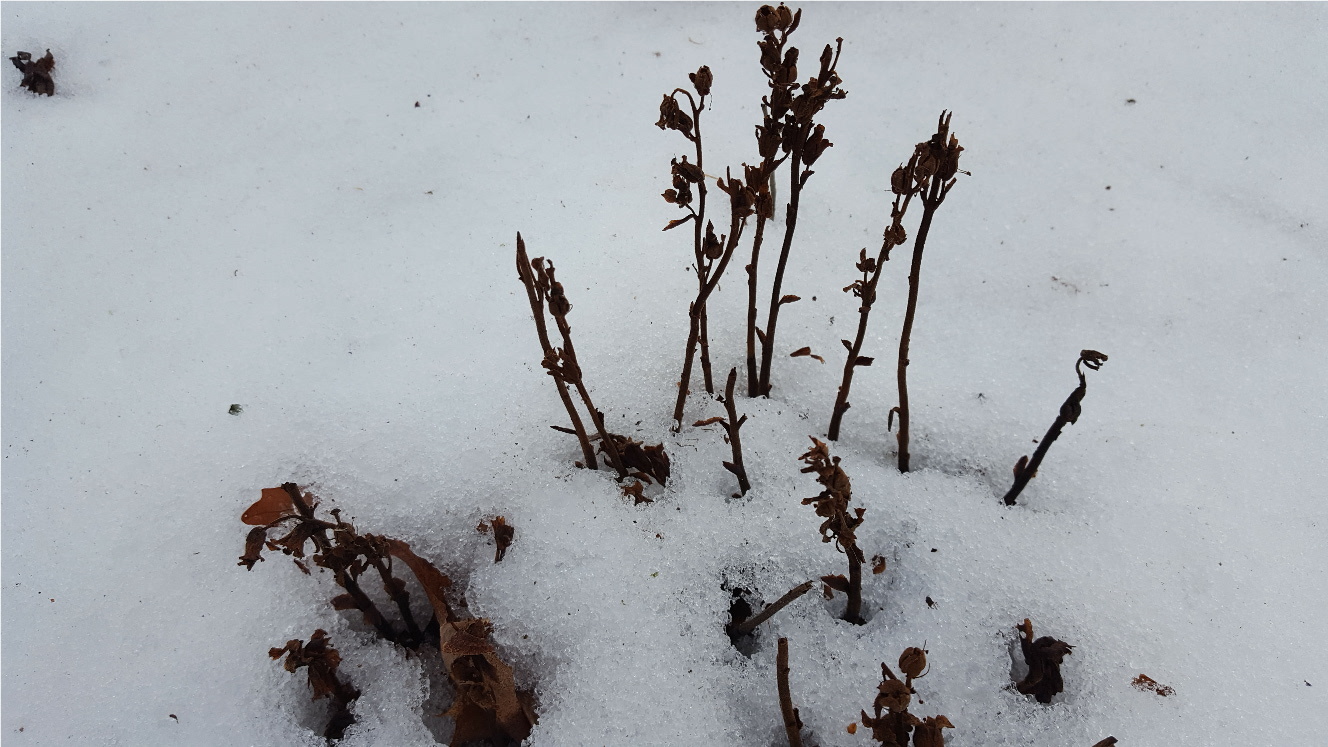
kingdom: Plantae
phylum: Tracheophyta
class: Magnoliopsida
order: Ericales
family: Ericaceae
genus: Hypopitys
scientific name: Hypopitys monotropa
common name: Yellow bird's-nest
